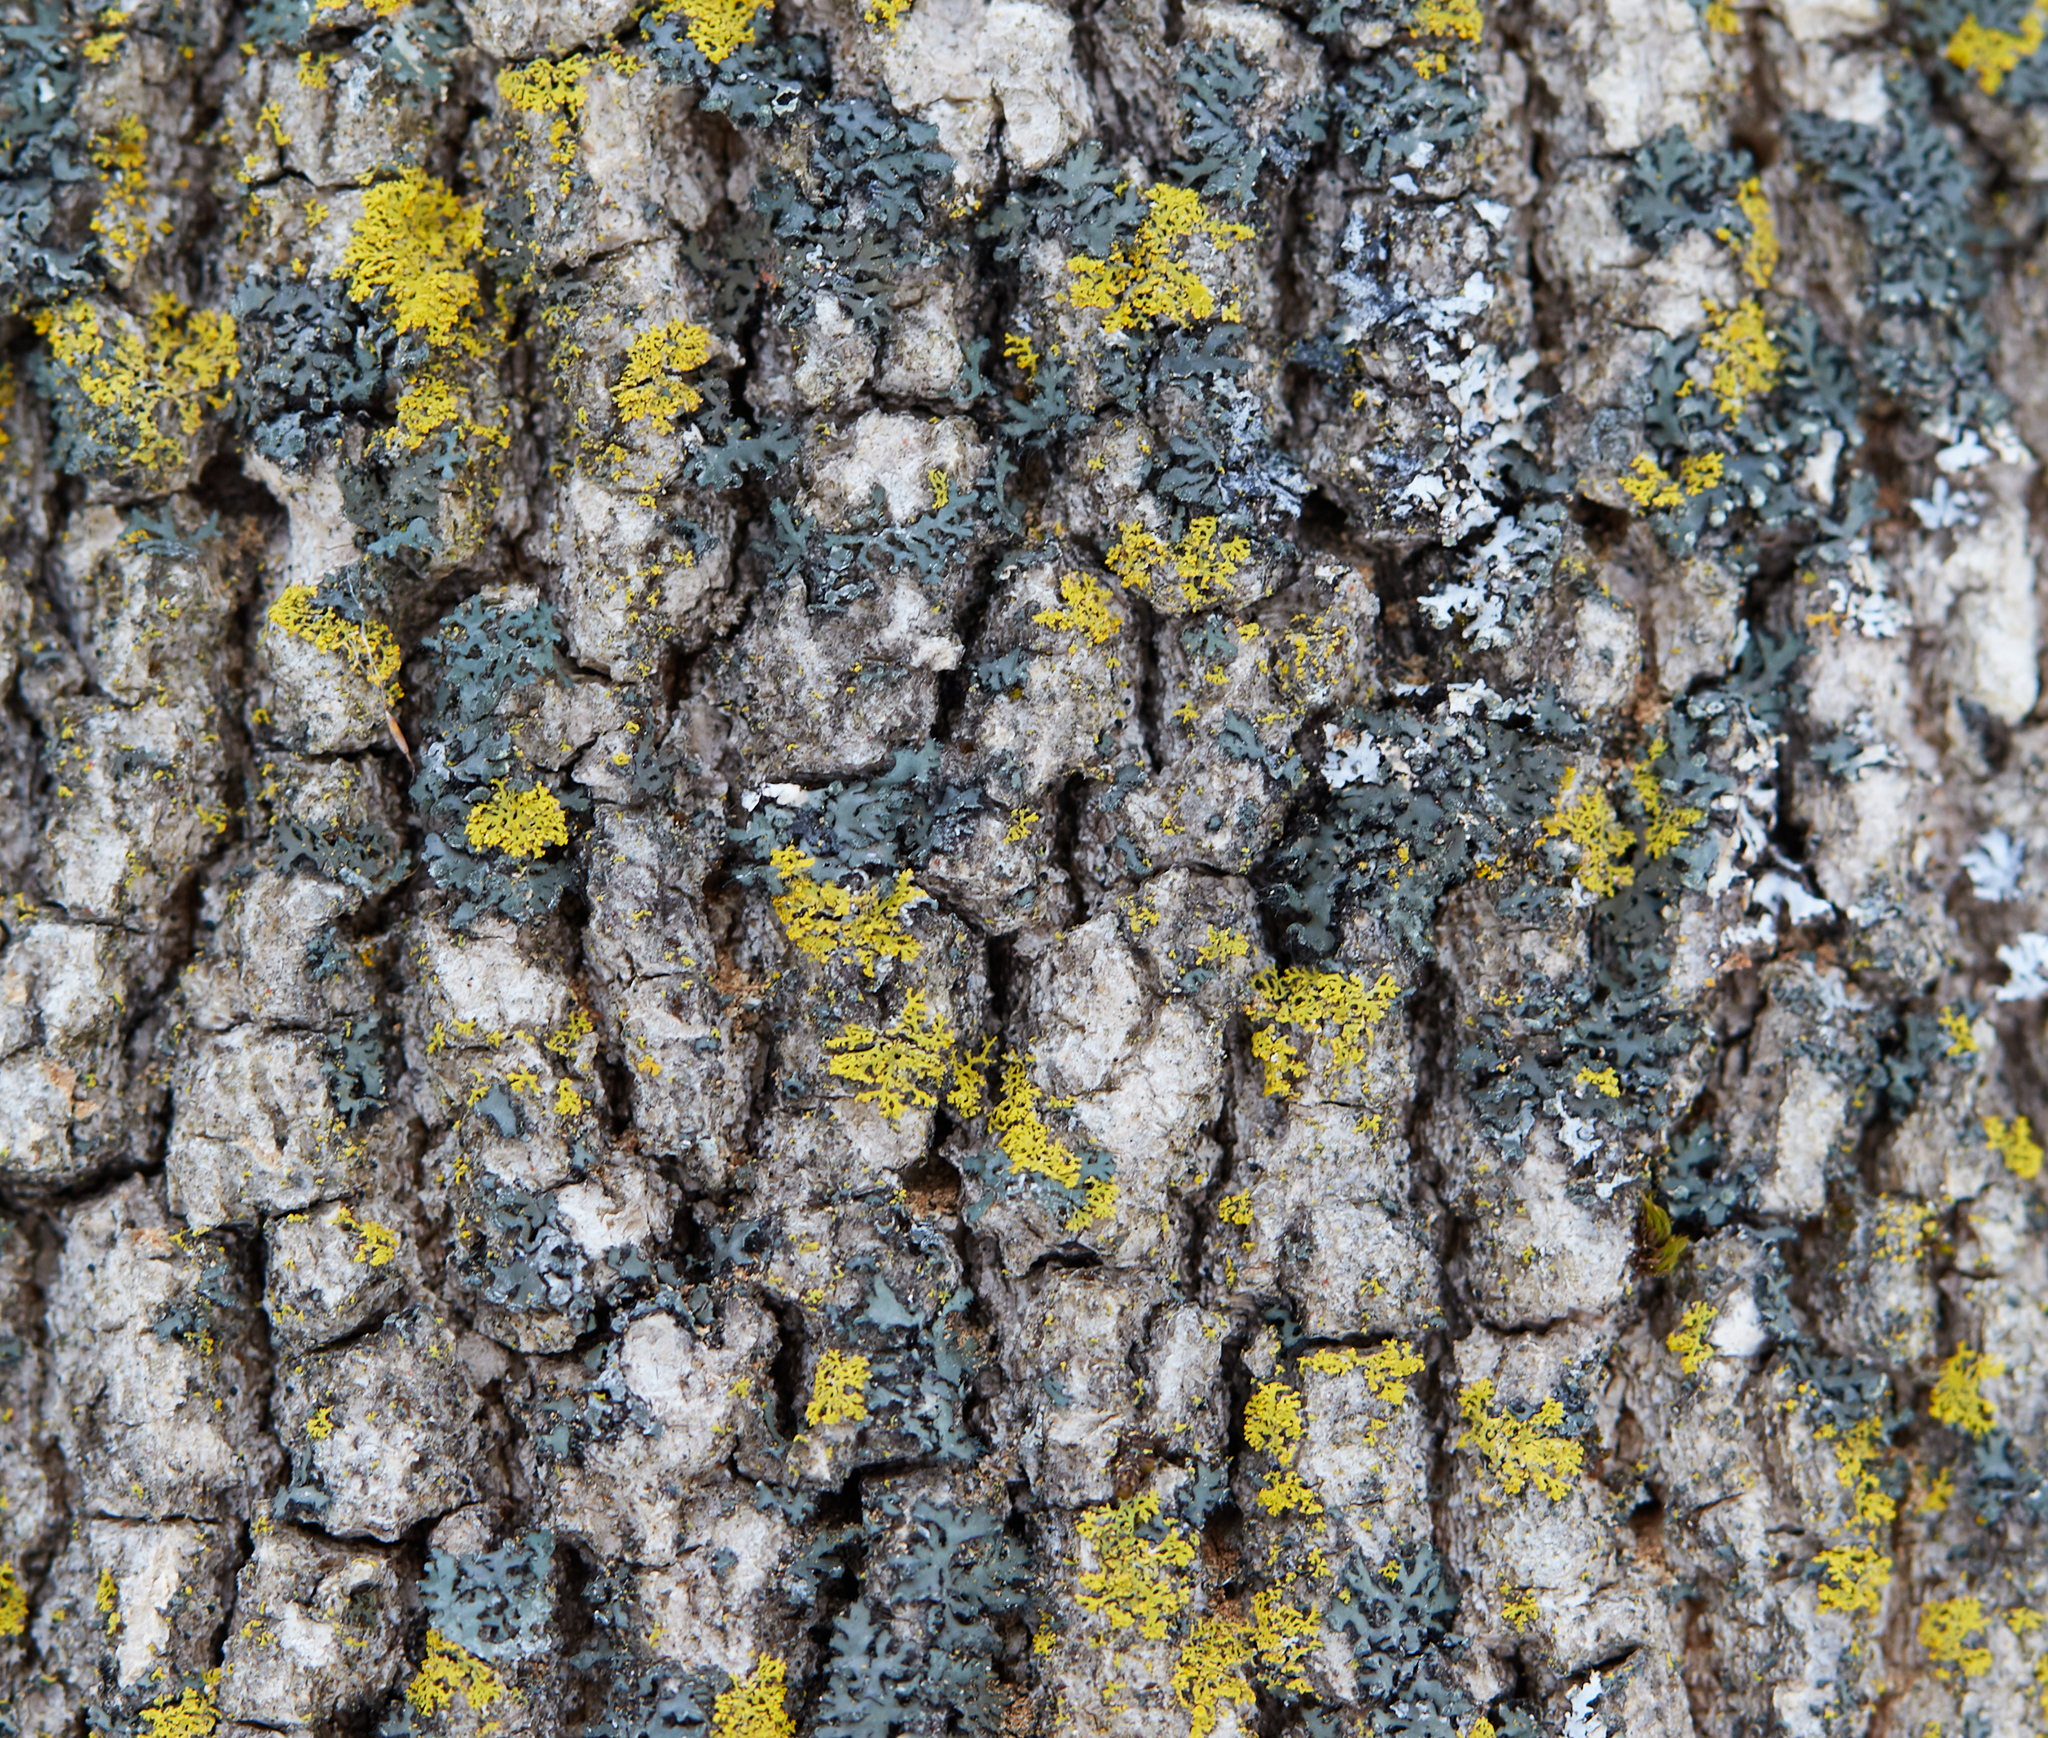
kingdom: Fungi
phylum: Ascomycota
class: Candelariomycetes
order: Candelariales
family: Candelariaceae
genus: Candelaria
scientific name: Candelaria concolor
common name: Candleflame lichen
